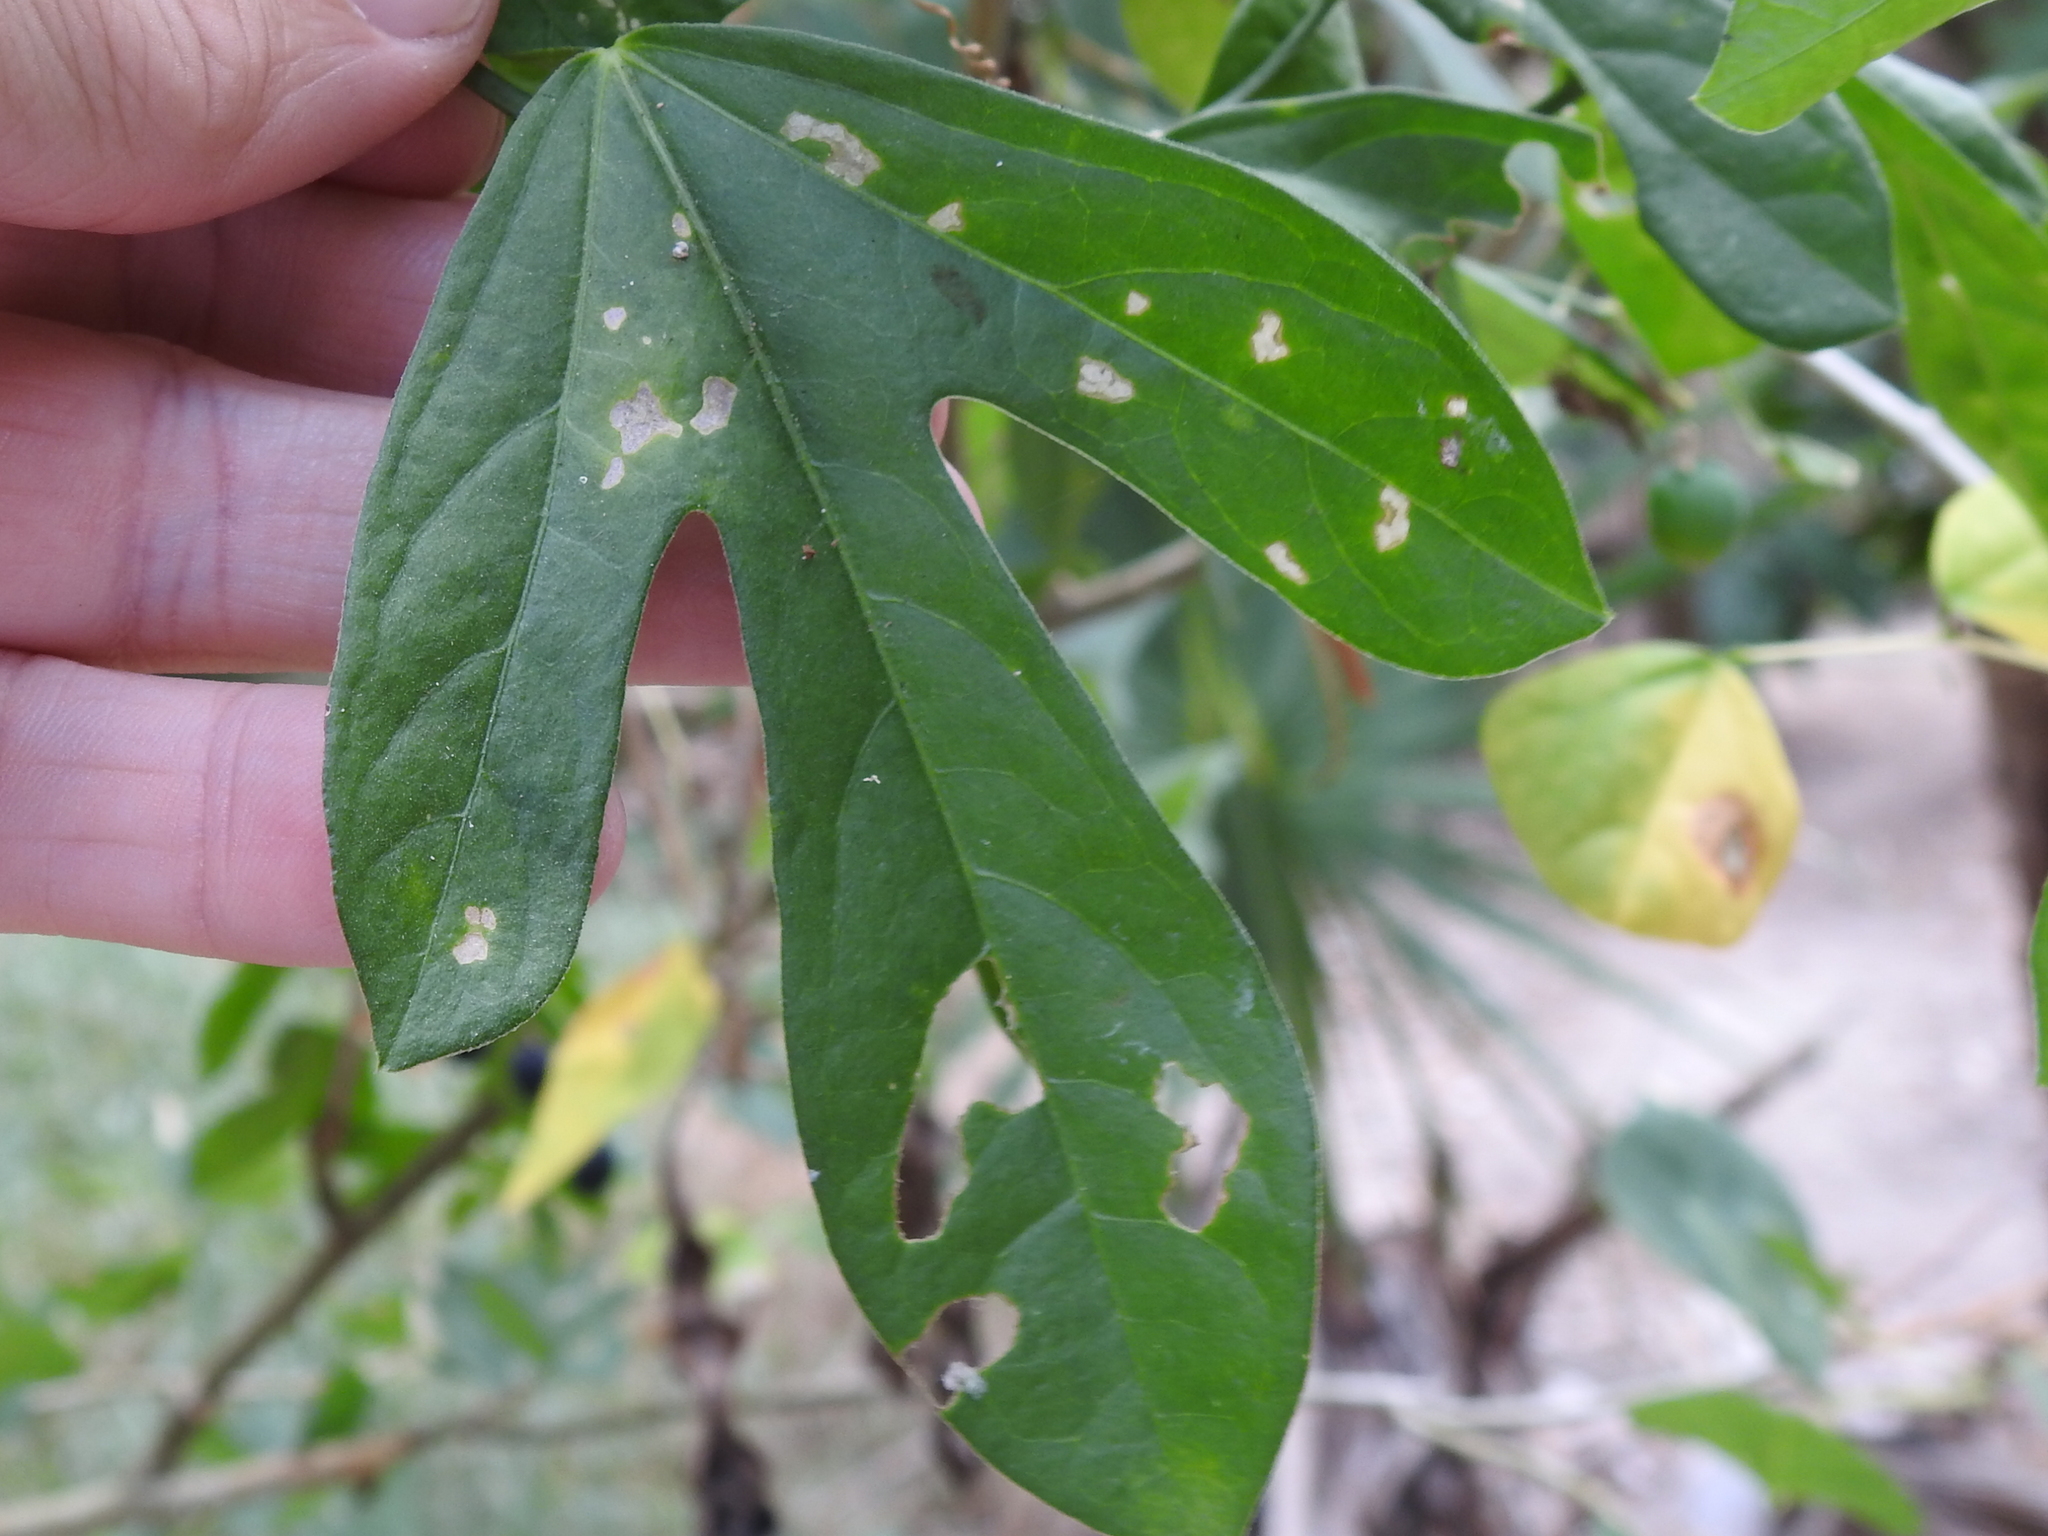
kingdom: Plantae
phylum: Tracheophyta
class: Magnoliopsida
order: Malpighiales
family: Passifloraceae
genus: Passiflora
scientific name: Passiflora pallida
